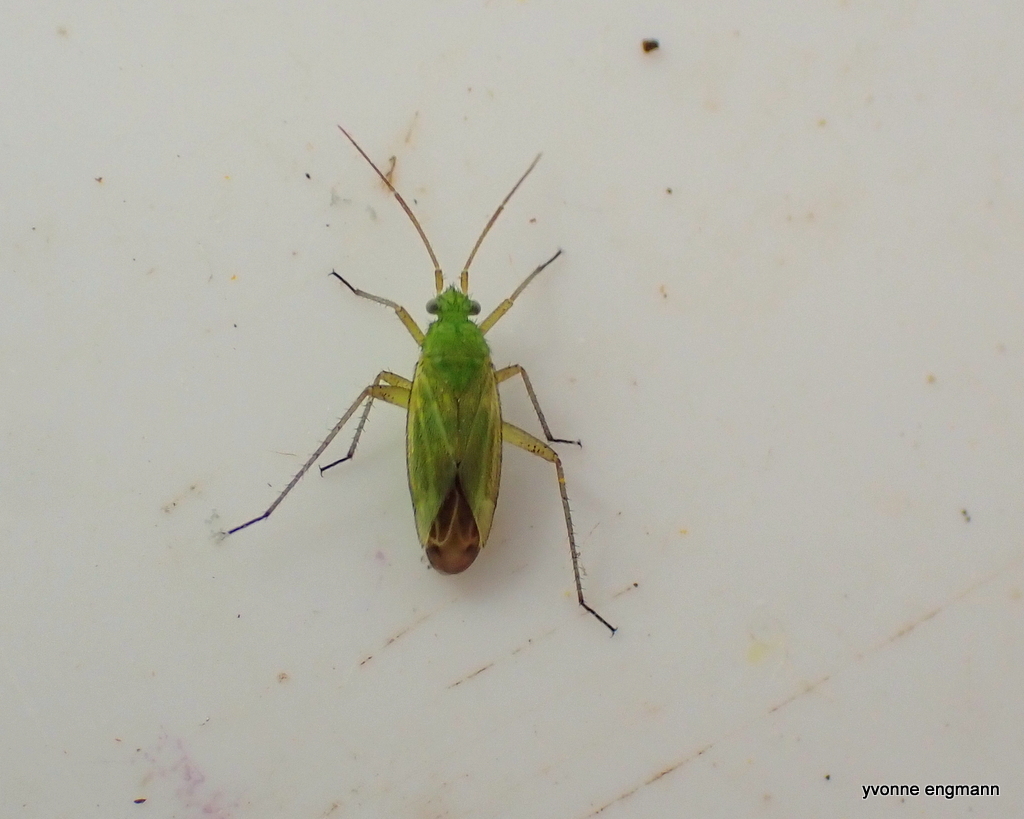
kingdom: Animalia
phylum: Arthropoda
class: Insecta
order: Hemiptera
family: Miridae
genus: Closterotomus
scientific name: Closterotomus norvegicus
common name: Plant bug
